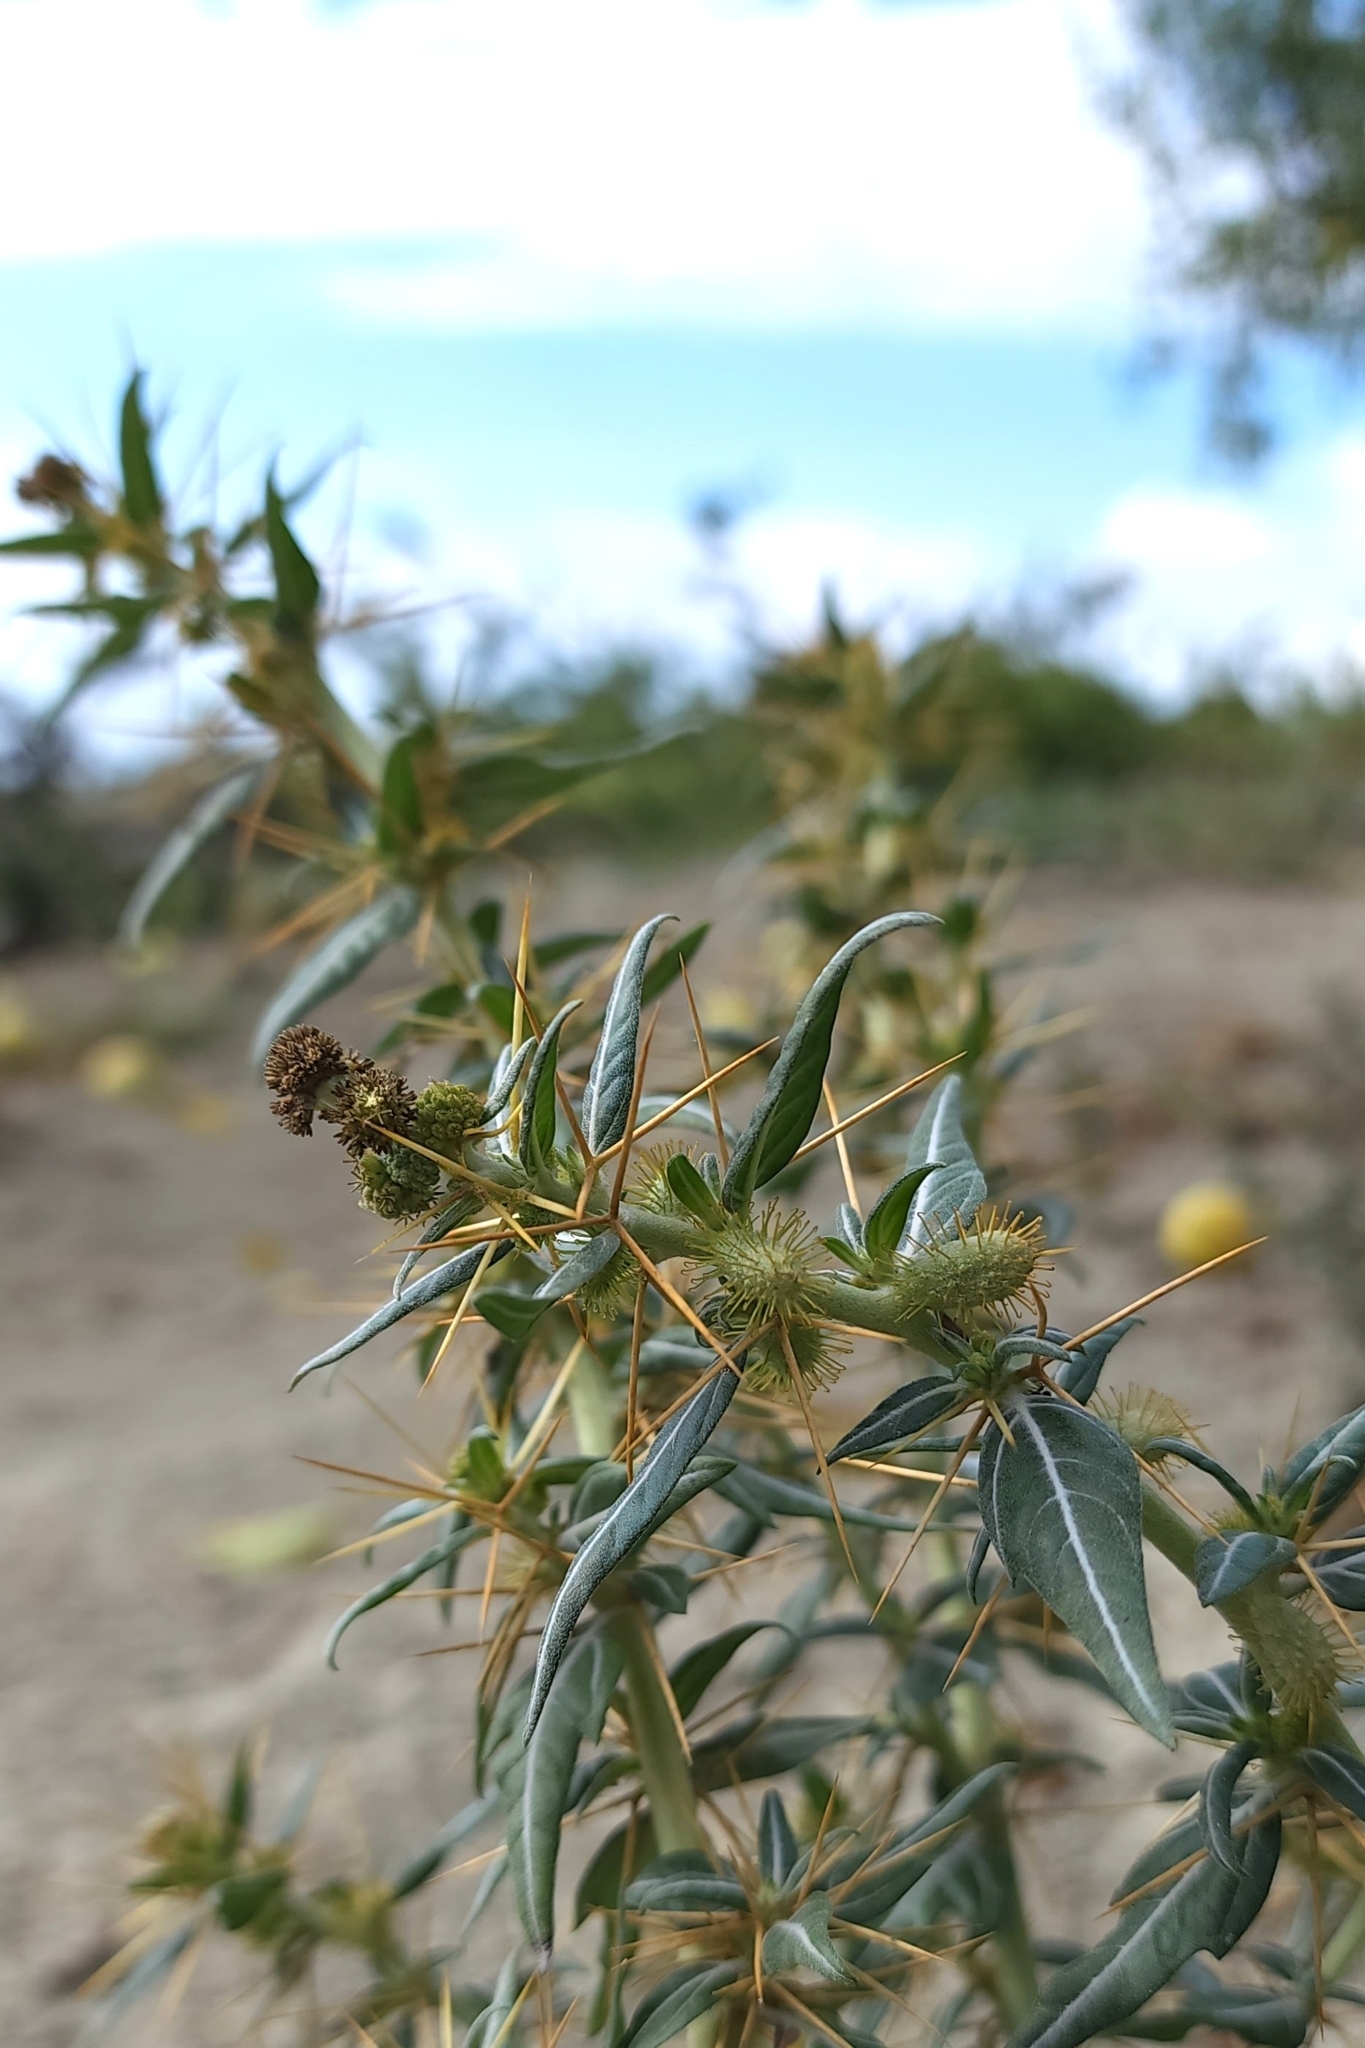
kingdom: Plantae
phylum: Tracheophyta
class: Magnoliopsida
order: Asterales
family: Asteraceae
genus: Xanthium
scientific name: Xanthium spinosum
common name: Spiny cocklebur
